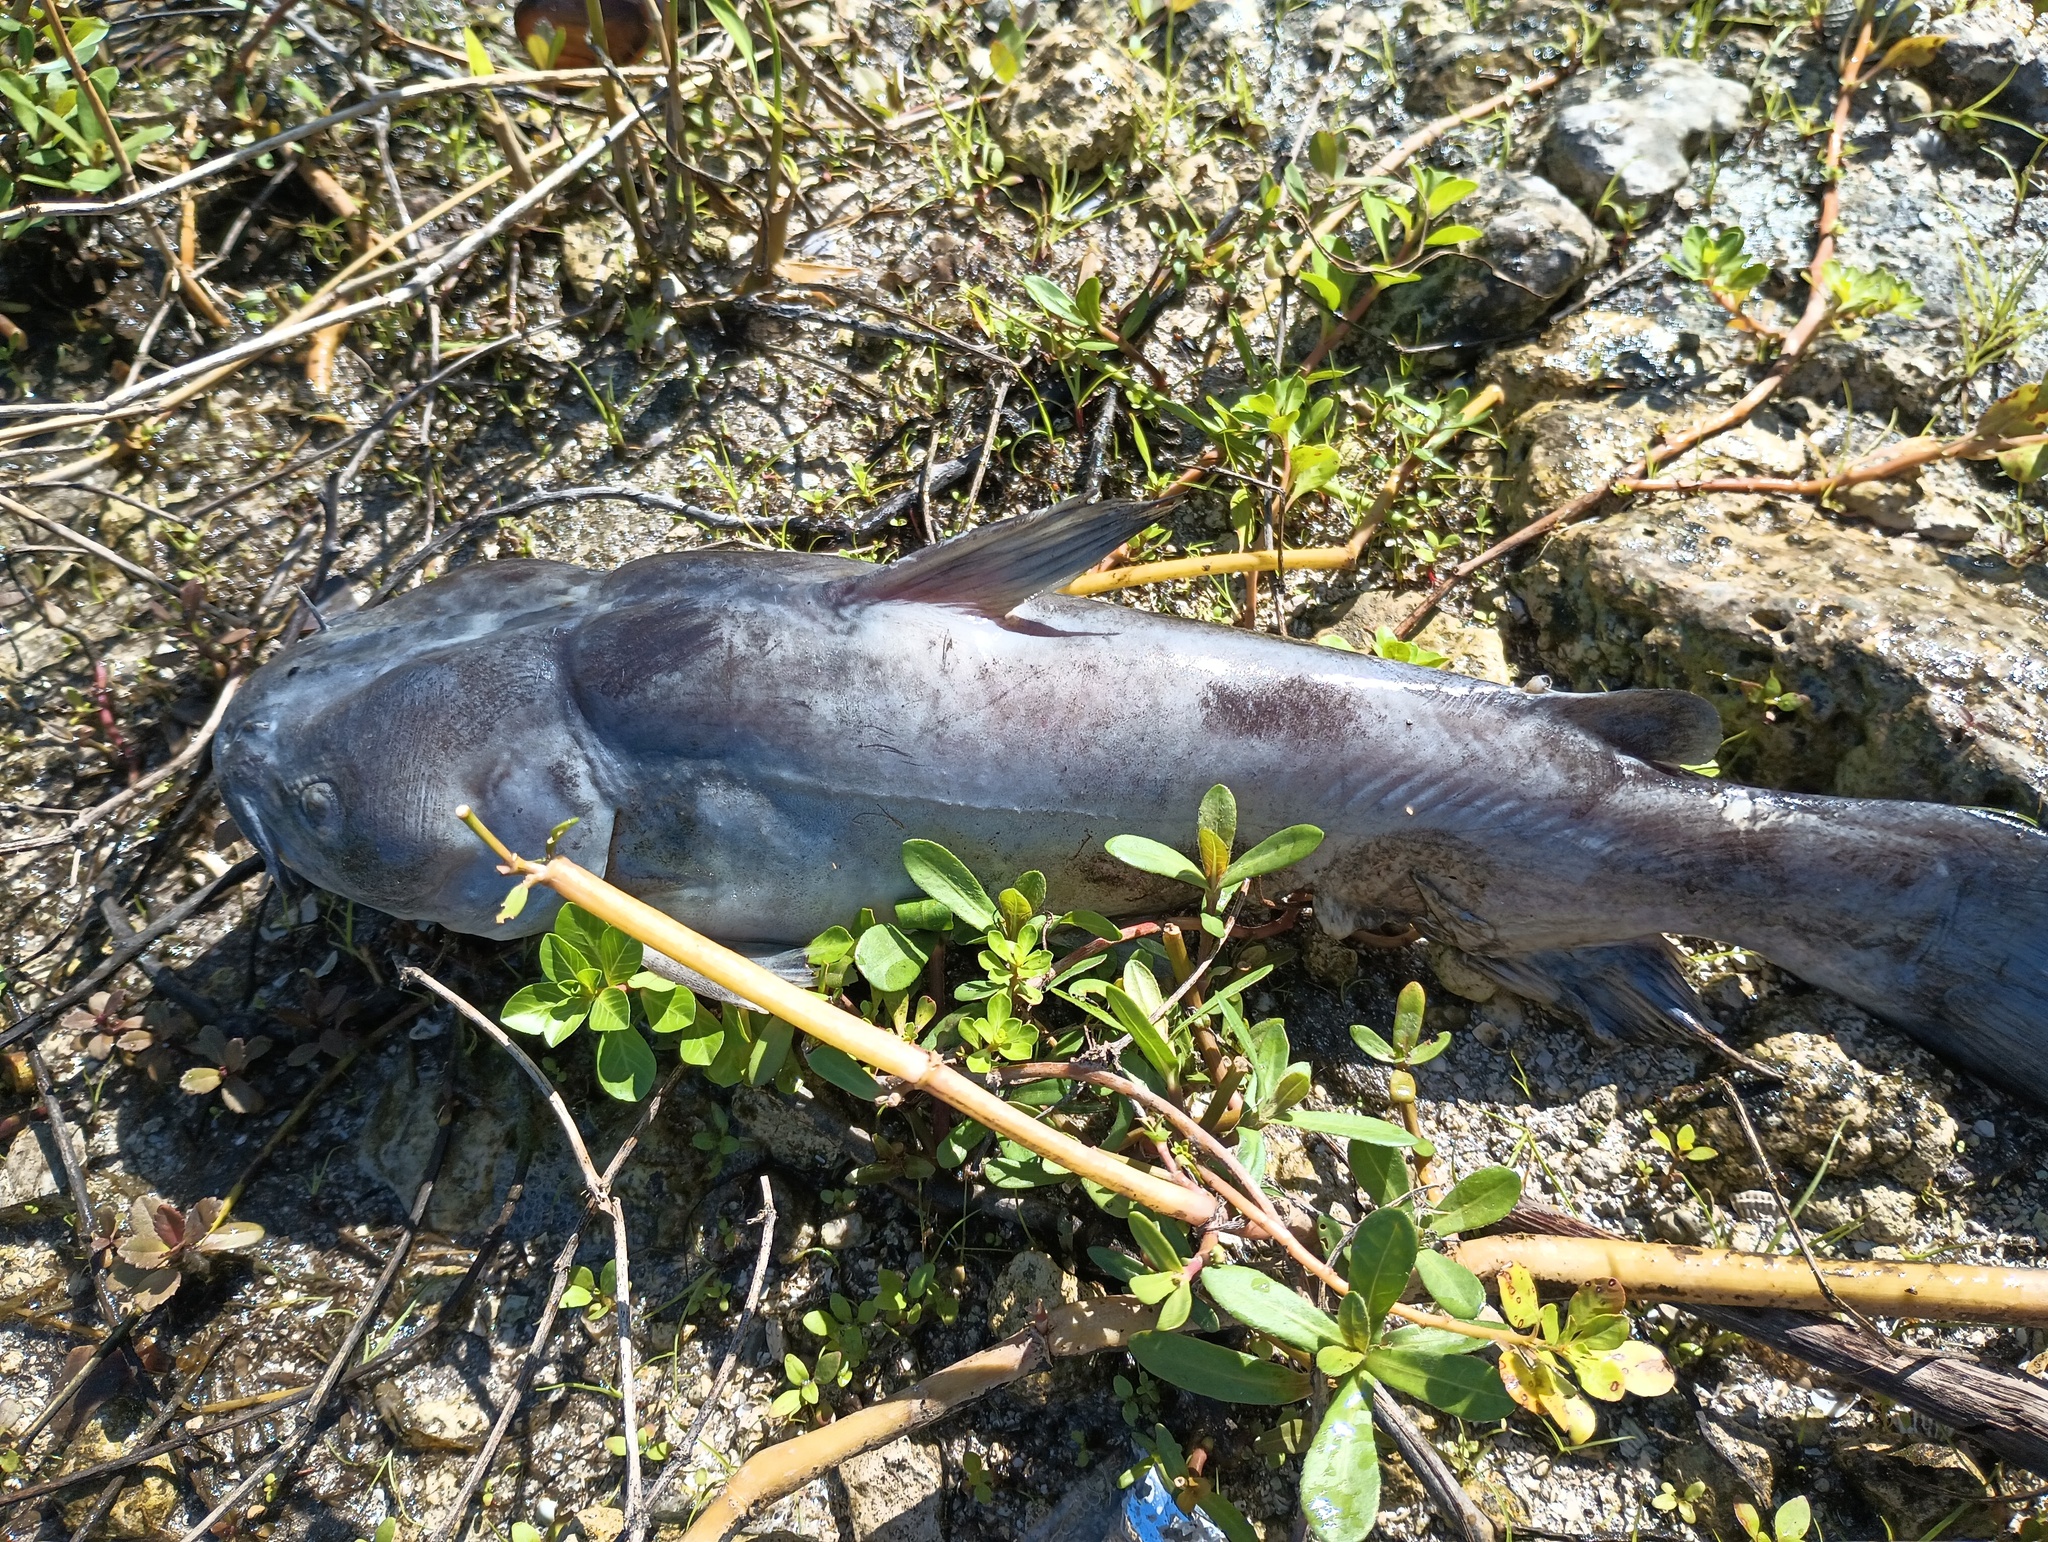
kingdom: Animalia
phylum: Chordata
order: Siluriformes
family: Ictaluridae
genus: Ameiurus
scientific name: Ameiurus catus
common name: White catfish
